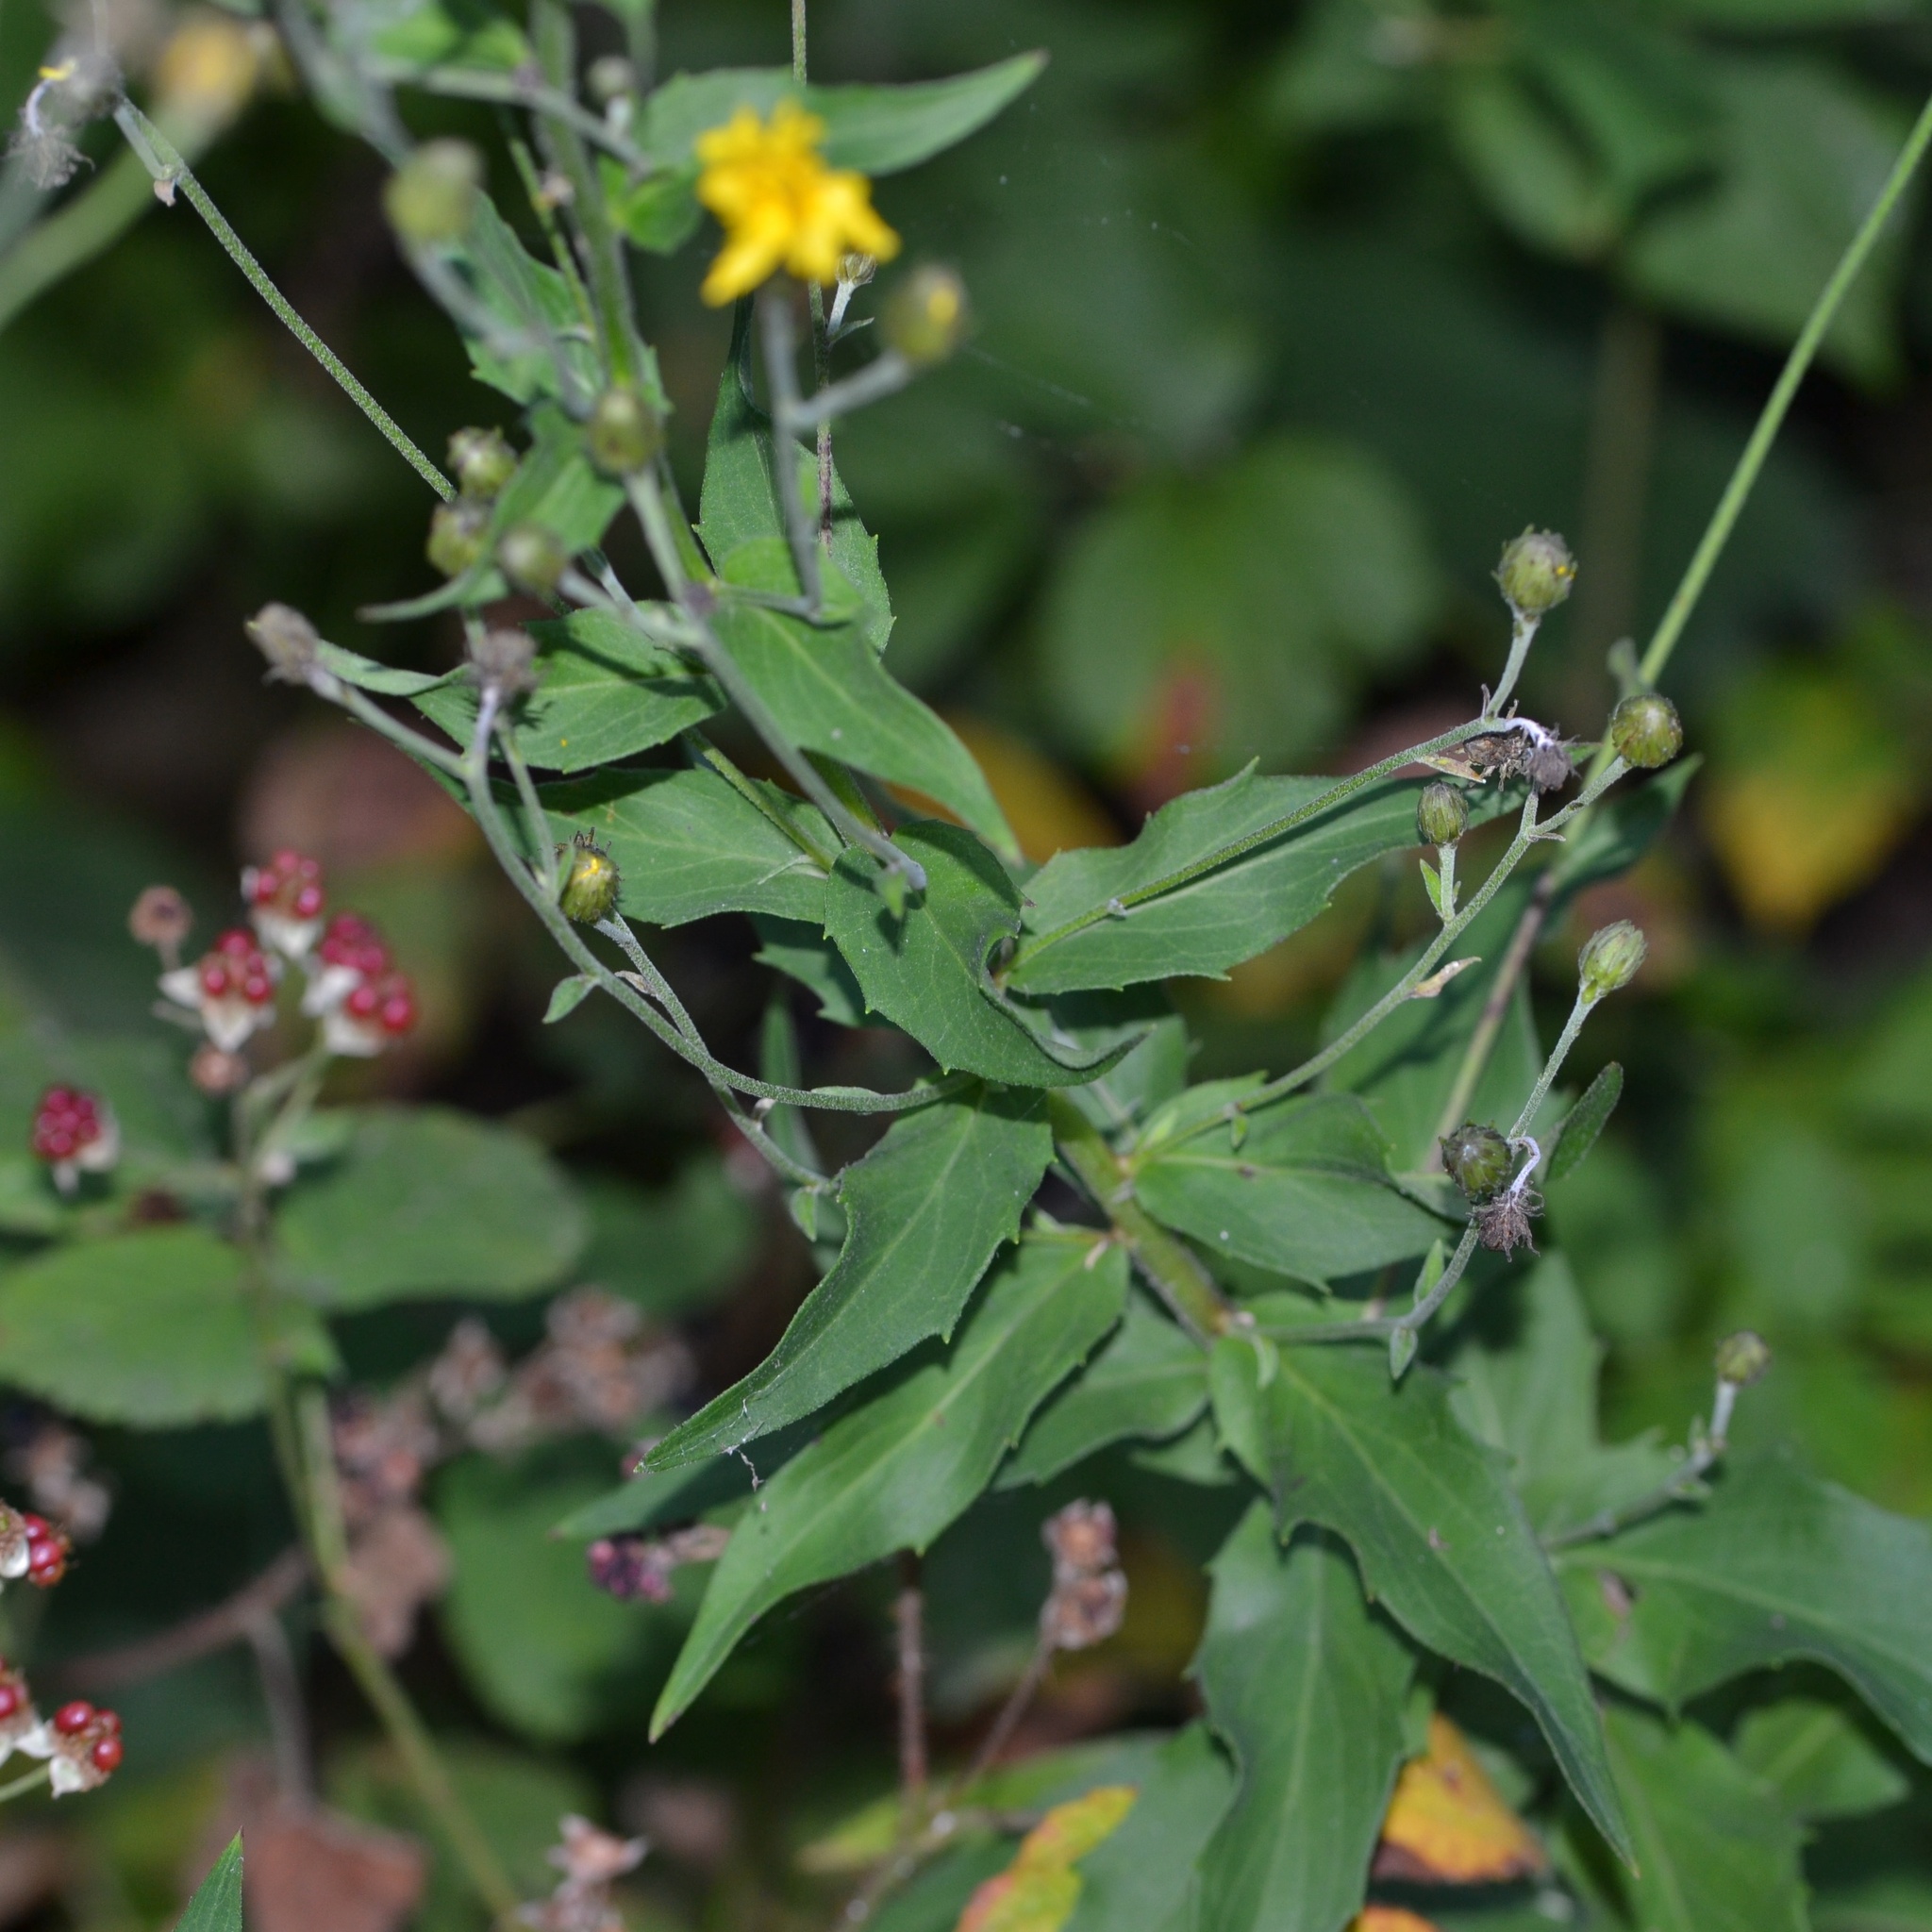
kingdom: Plantae
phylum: Tracheophyta
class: Magnoliopsida
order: Asterales
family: Asteraceae
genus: Hieracium
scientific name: Hieracium sabaudum
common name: New england hawkweed
